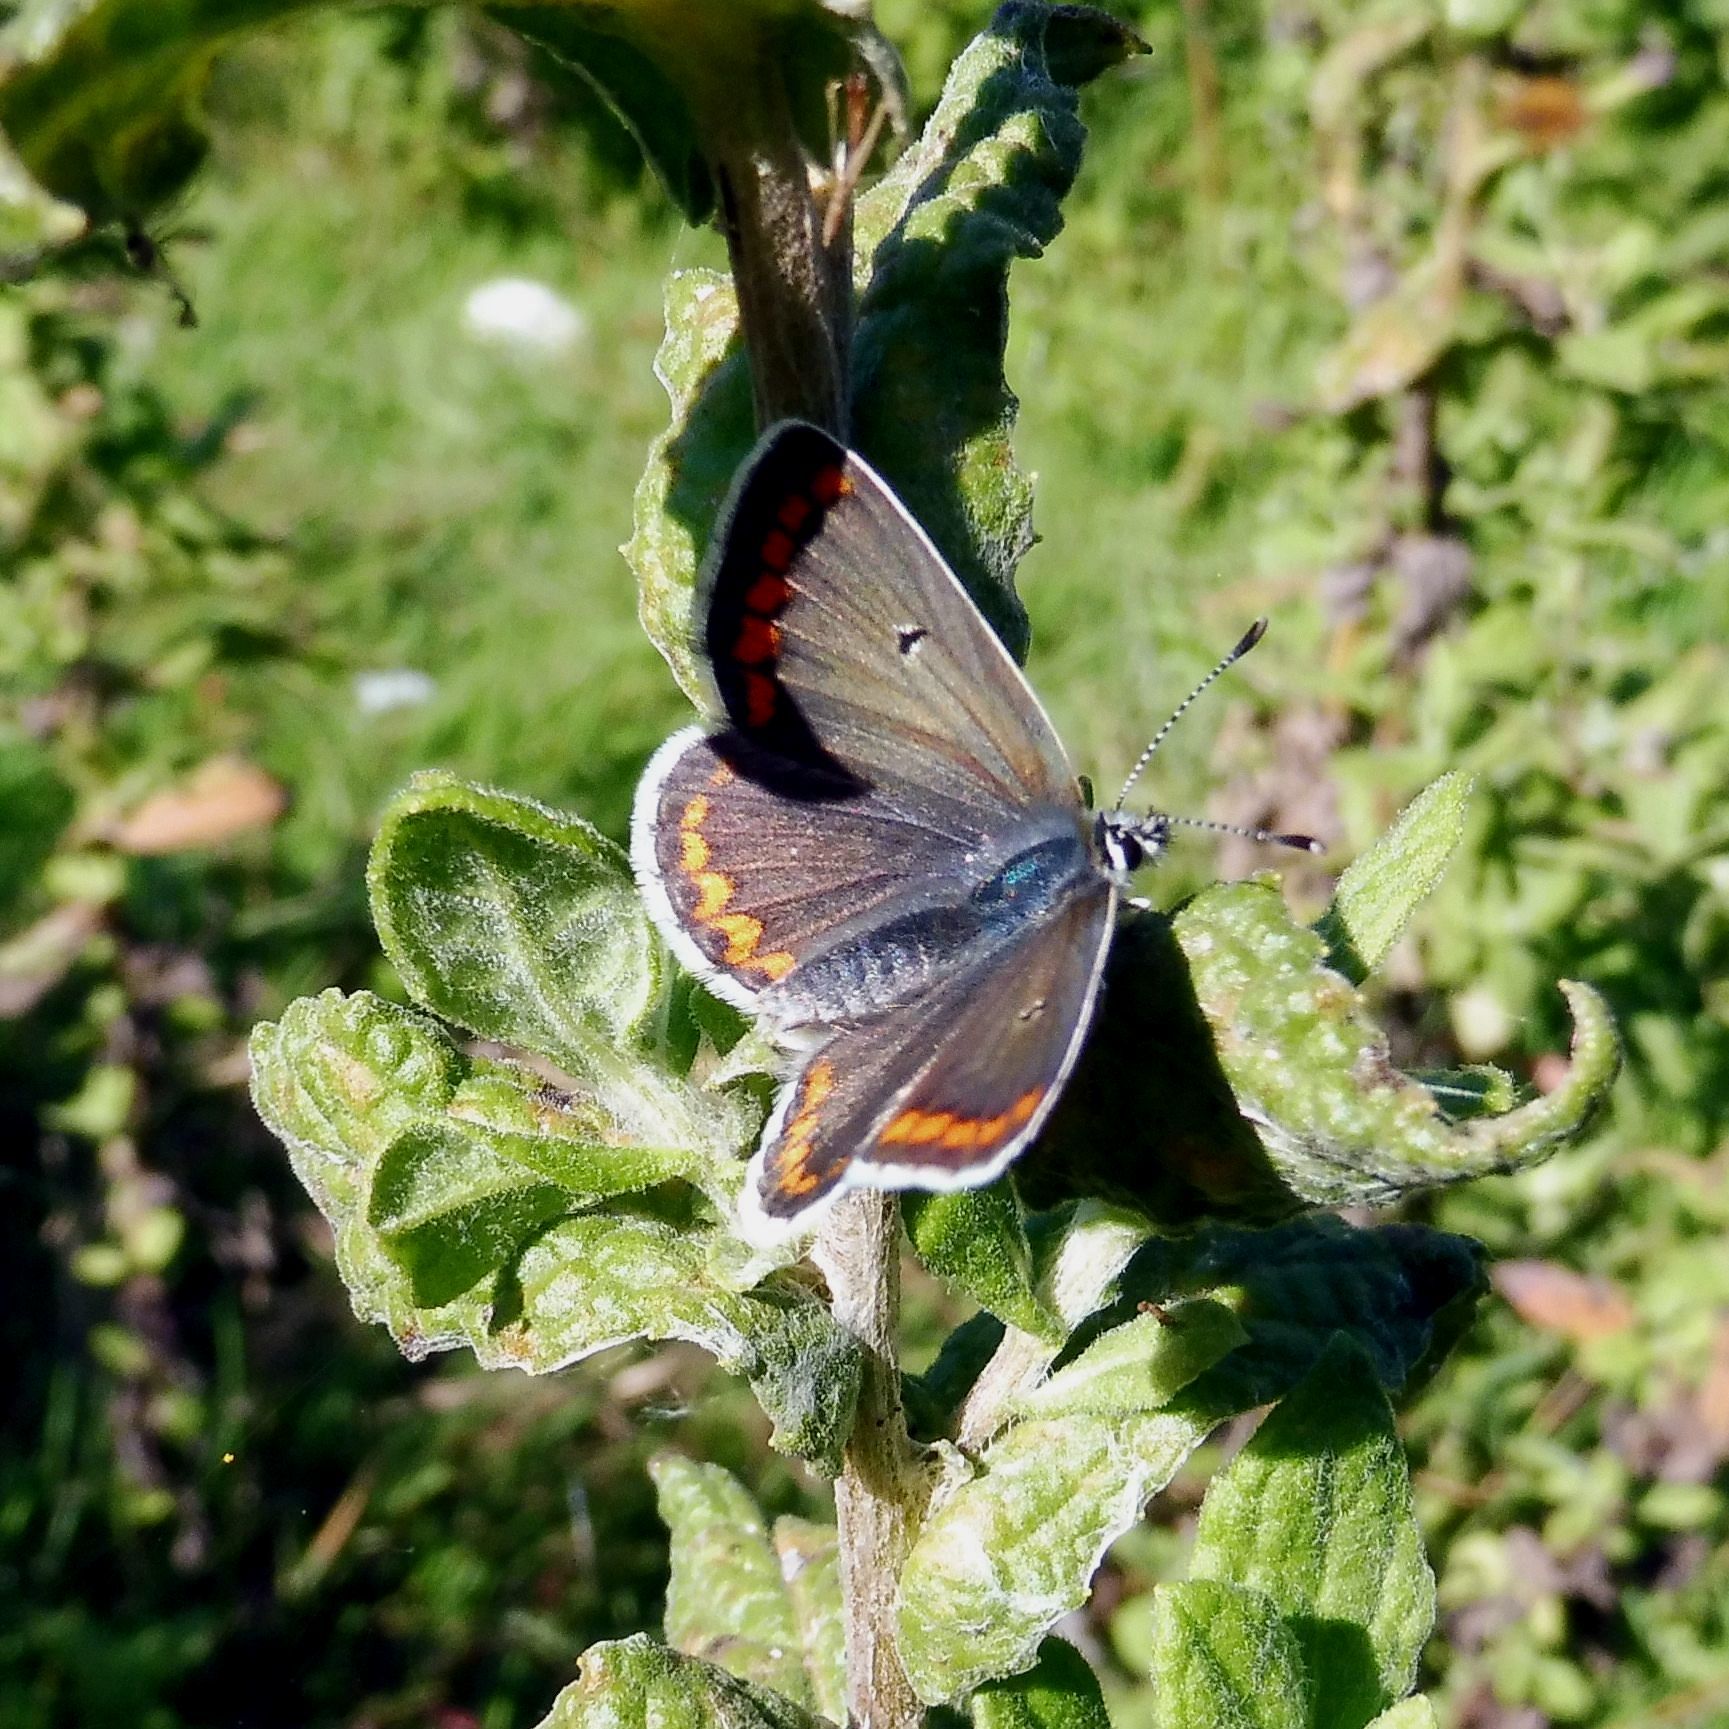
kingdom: Animalia
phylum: Arthropoda
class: Insecta
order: Lepidoptera
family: Lycaenidae
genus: Aricia
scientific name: Aricia agestis
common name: Brown argus
